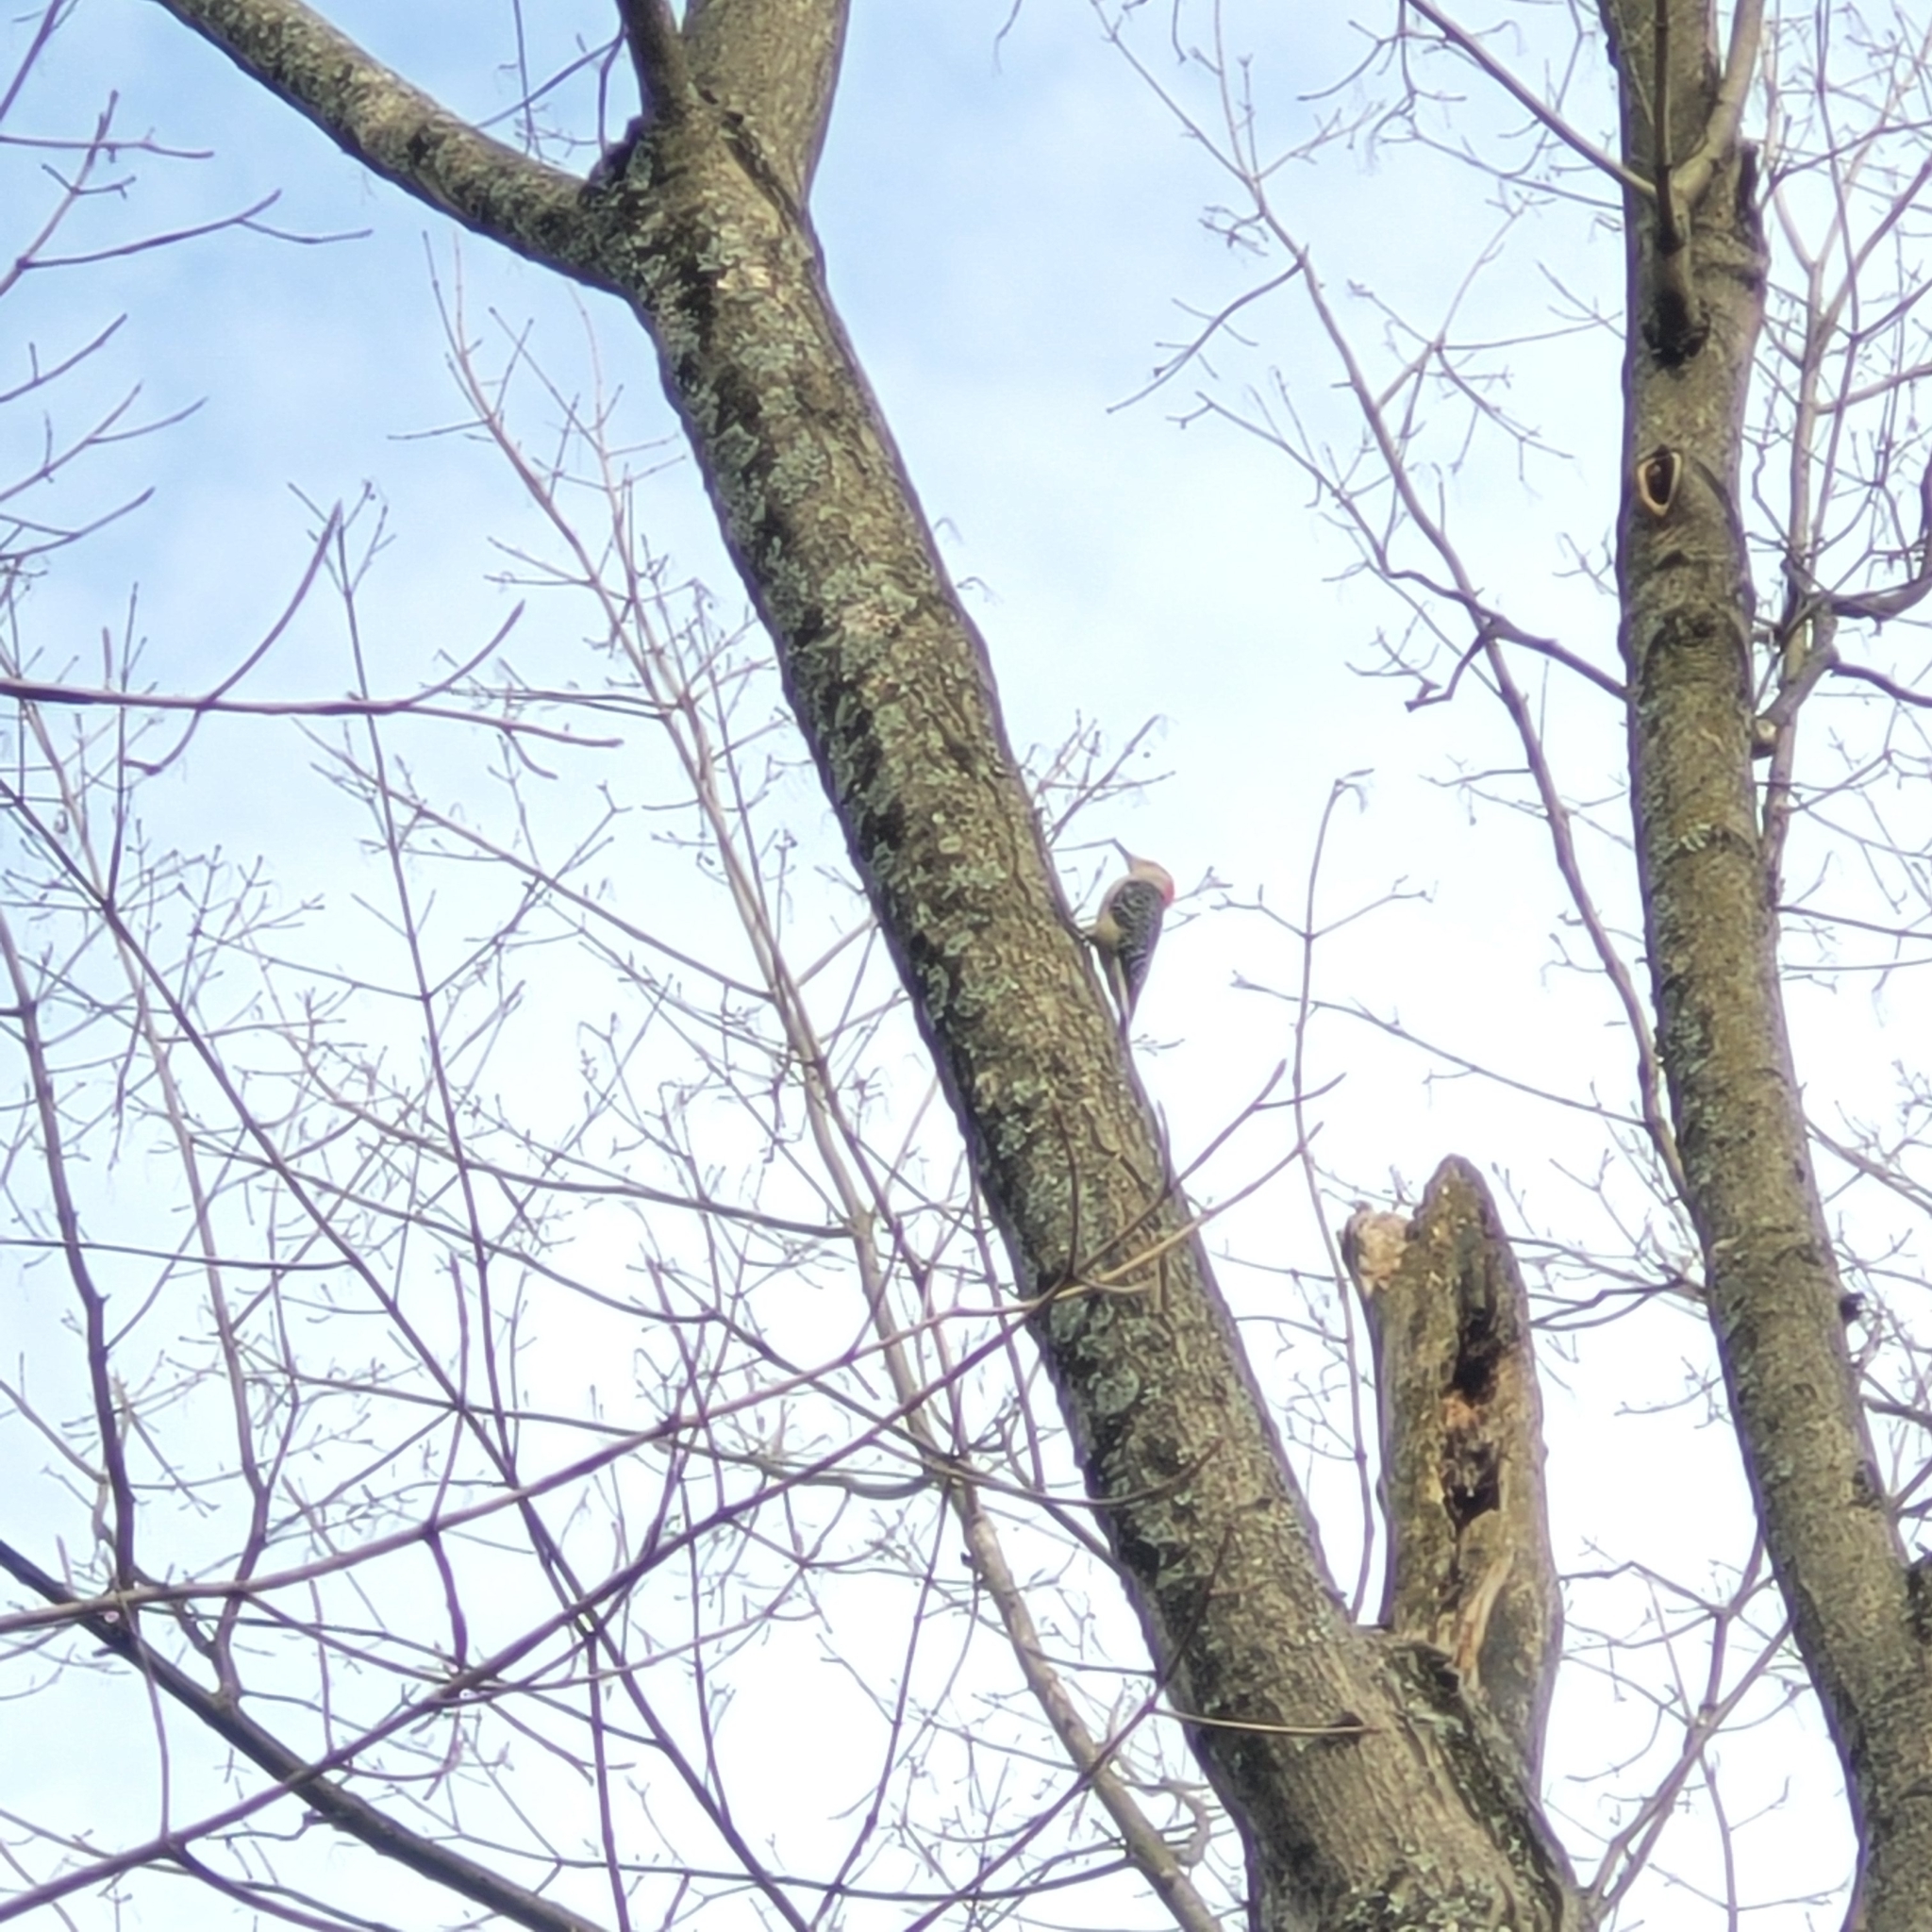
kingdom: Animalia
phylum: Chordata
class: Aves
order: Piciformes
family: Picidae
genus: Melanerpes
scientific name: Melanerpes carolinus
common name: Red-bellied woodpecker
